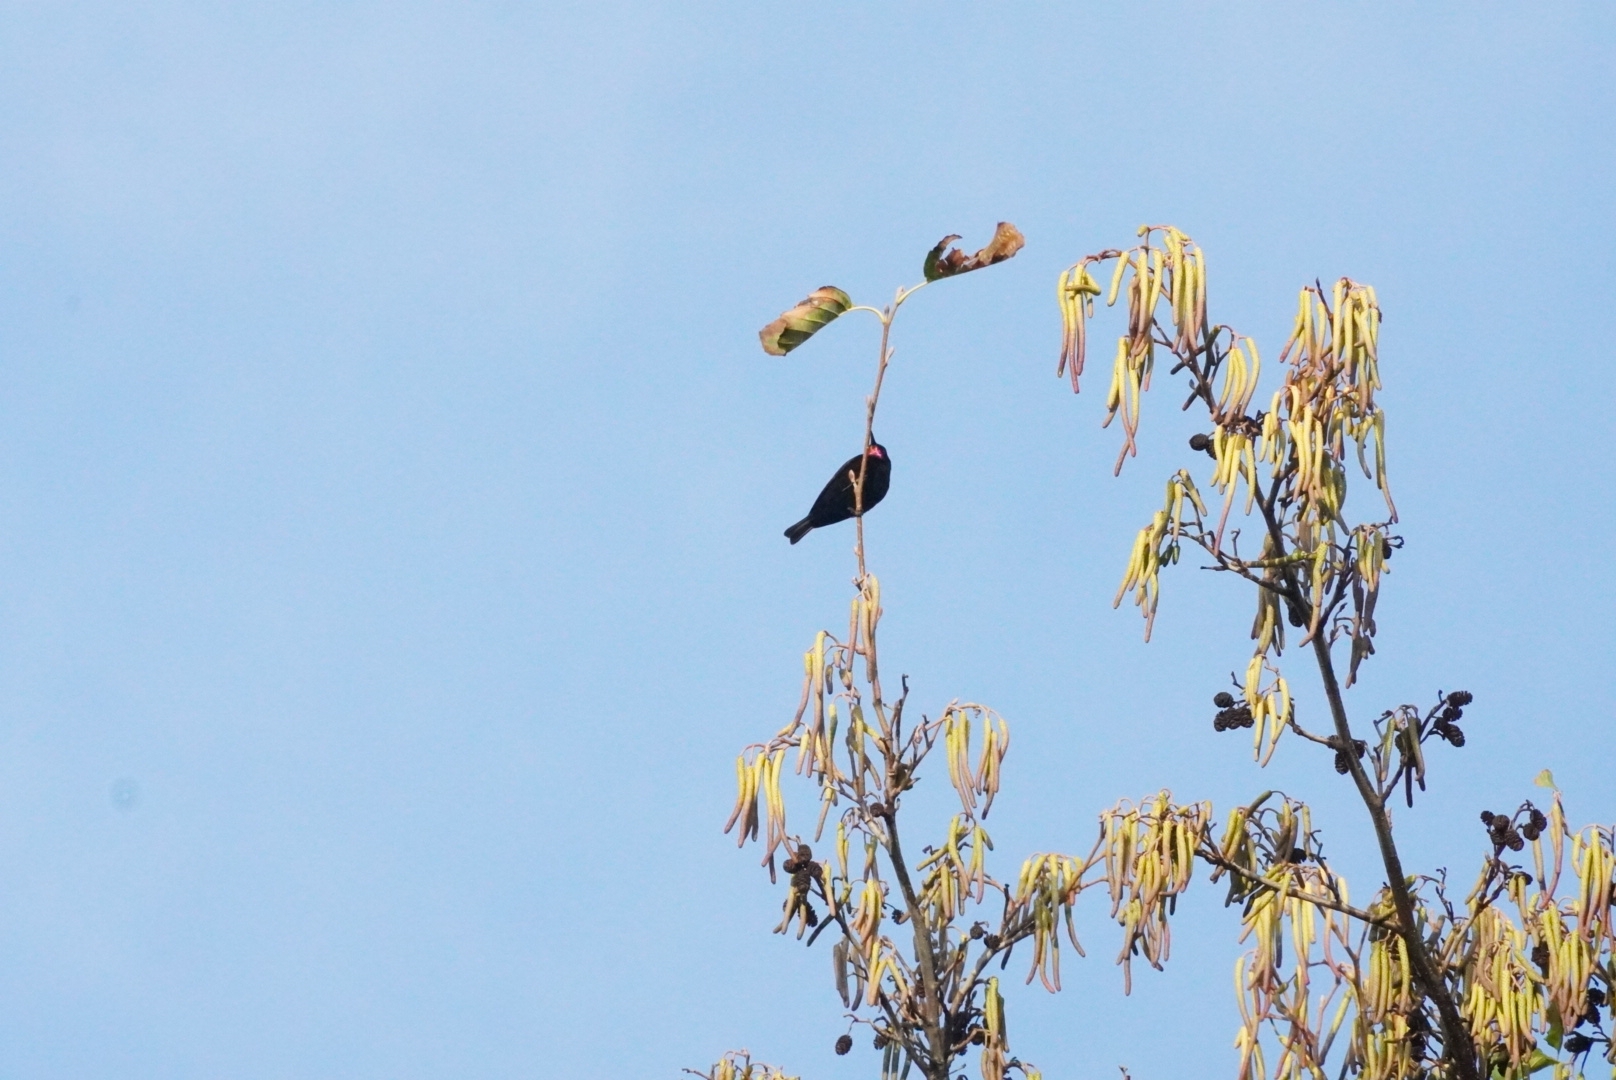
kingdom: Animalia
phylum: Chordata
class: Aves
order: Passeriformes
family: Nectariniidae
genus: Chalcomitra
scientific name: Chalcomitra amethystina
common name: Amethyst sunbird
